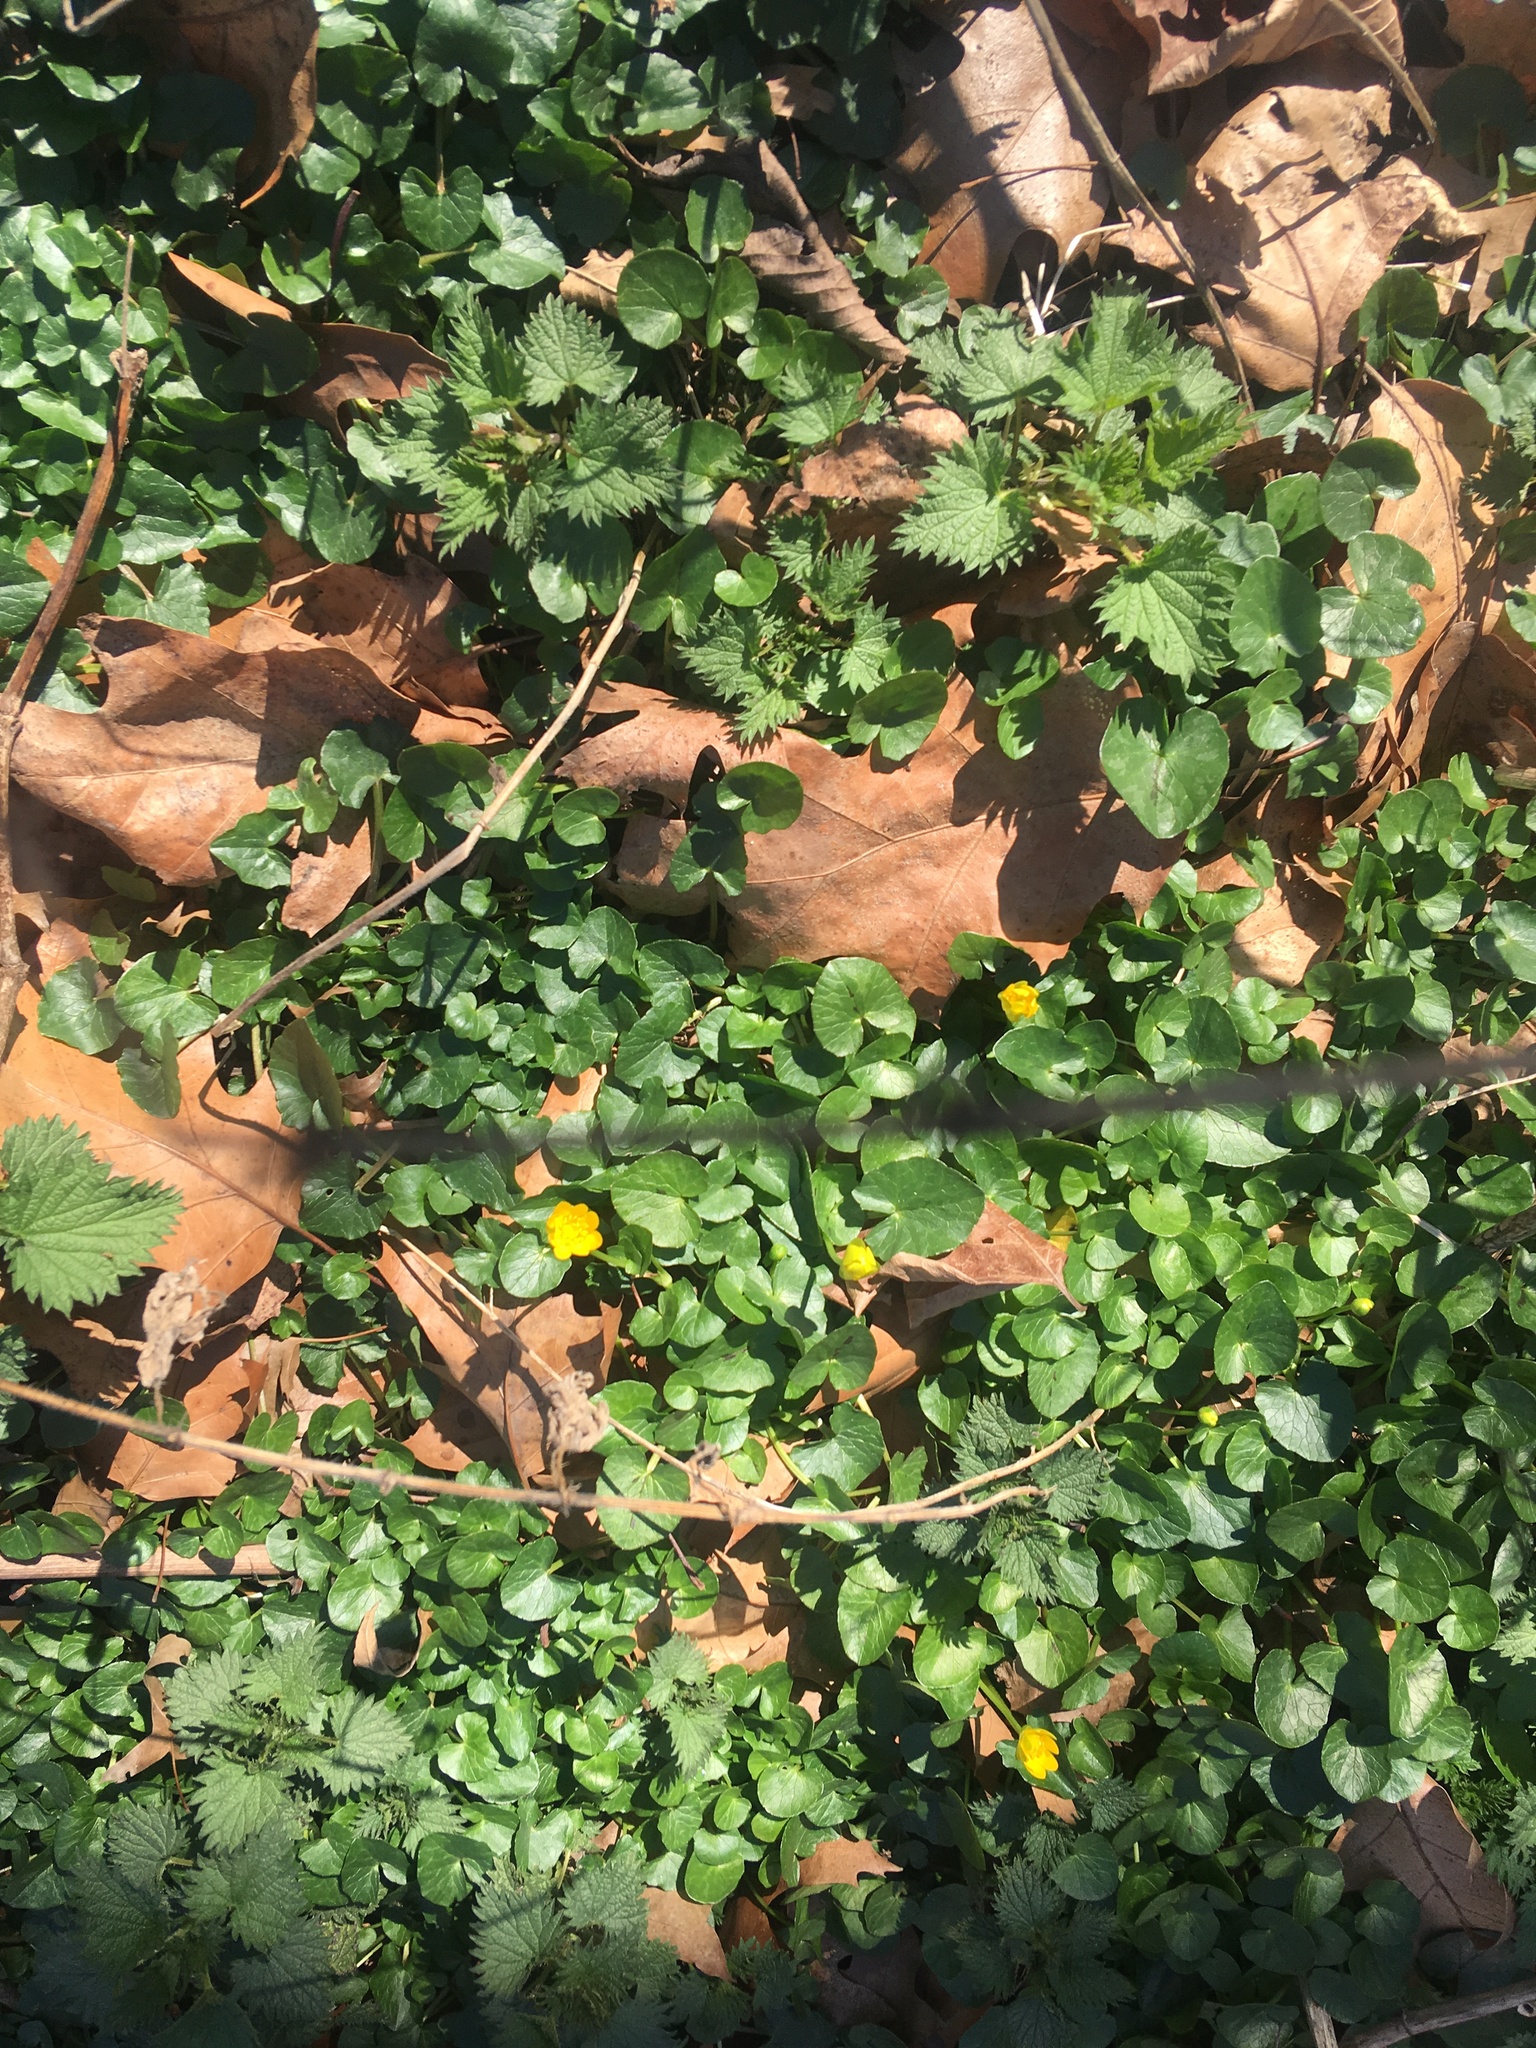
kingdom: Plantae
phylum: Tracheophyta
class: Magnoliopsida
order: Ranunculales
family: Ranunculaceae
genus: Ficaria
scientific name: Ficaria verna
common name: Lesser celandine
